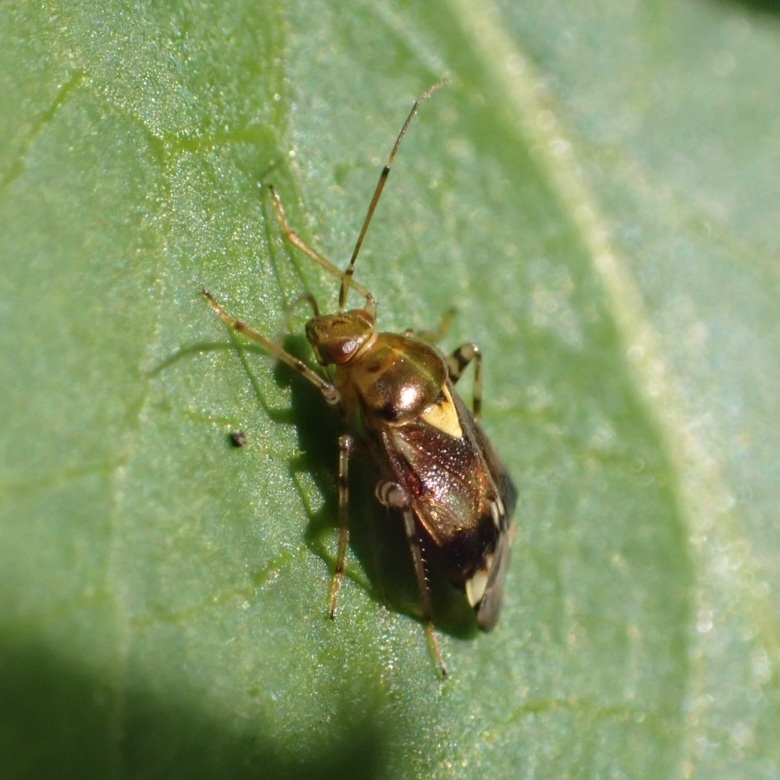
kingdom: Animalia
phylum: Arthropoda
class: Insecta
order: Hemiptera
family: Miridae
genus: Liocoris
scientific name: Liocoris tripustulatus
